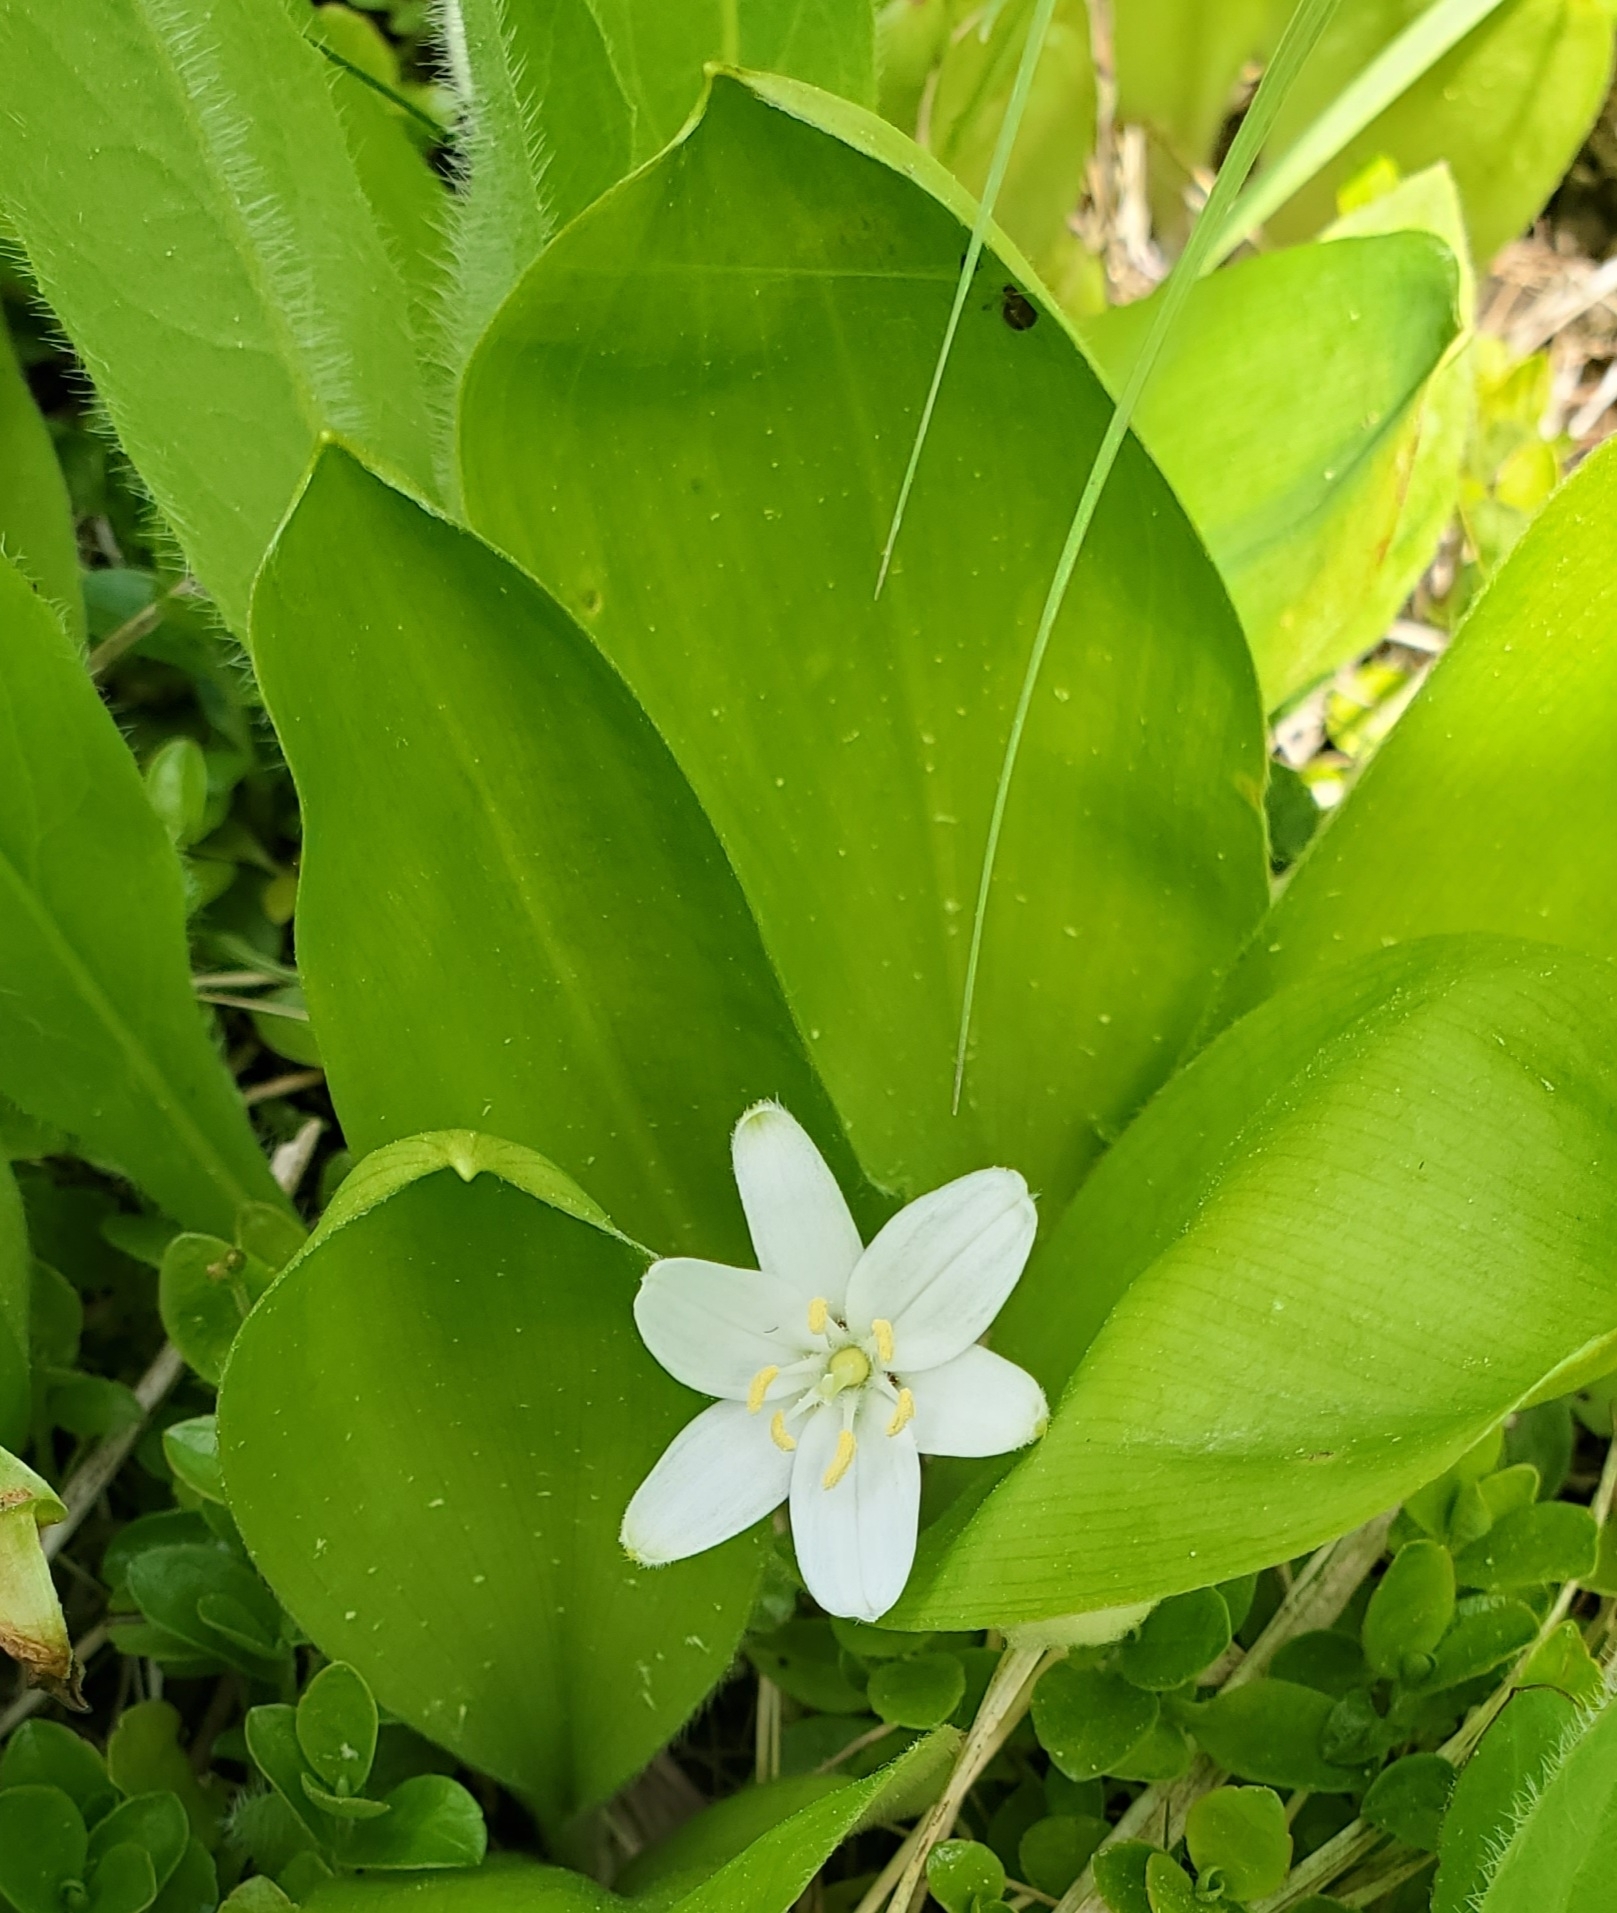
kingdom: Plantae
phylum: Tracheophyta
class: Liliopsida
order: Liliales
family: Liliaceae
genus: Clintonia
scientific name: Clintonia uniflora
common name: Queen's cup
